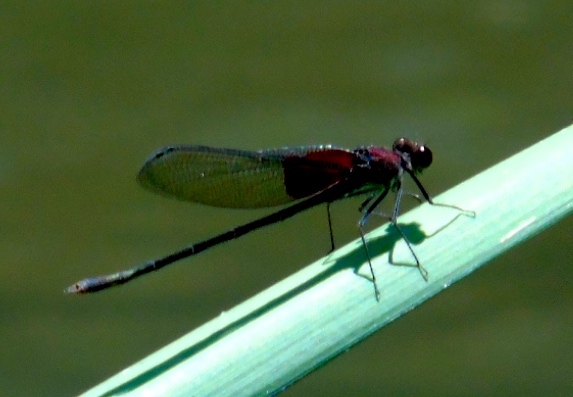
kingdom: Animalia
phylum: Arthropoda
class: Insecta
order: Odonata
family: Calopterygidae
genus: Hetaerina
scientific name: Hetaerina americana
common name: American rubyspot
